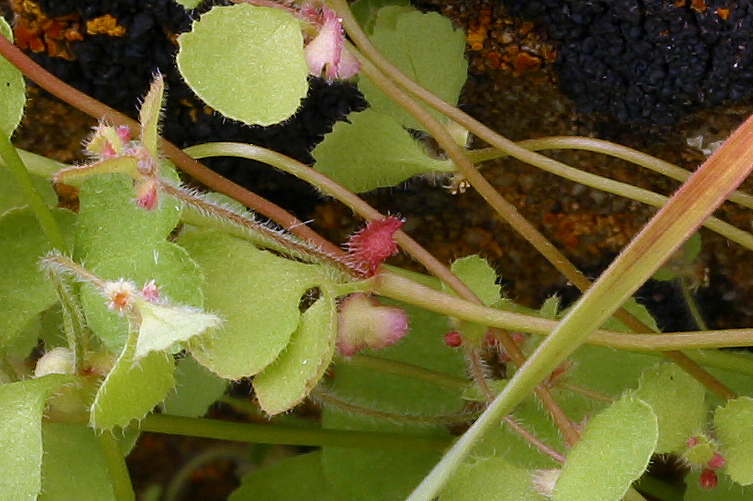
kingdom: Plantae
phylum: Tracheophyta
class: Magnoliopsida
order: Caryophyllales
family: Polygonaceae
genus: Pterostegia
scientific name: Pterostegia drymarioides
